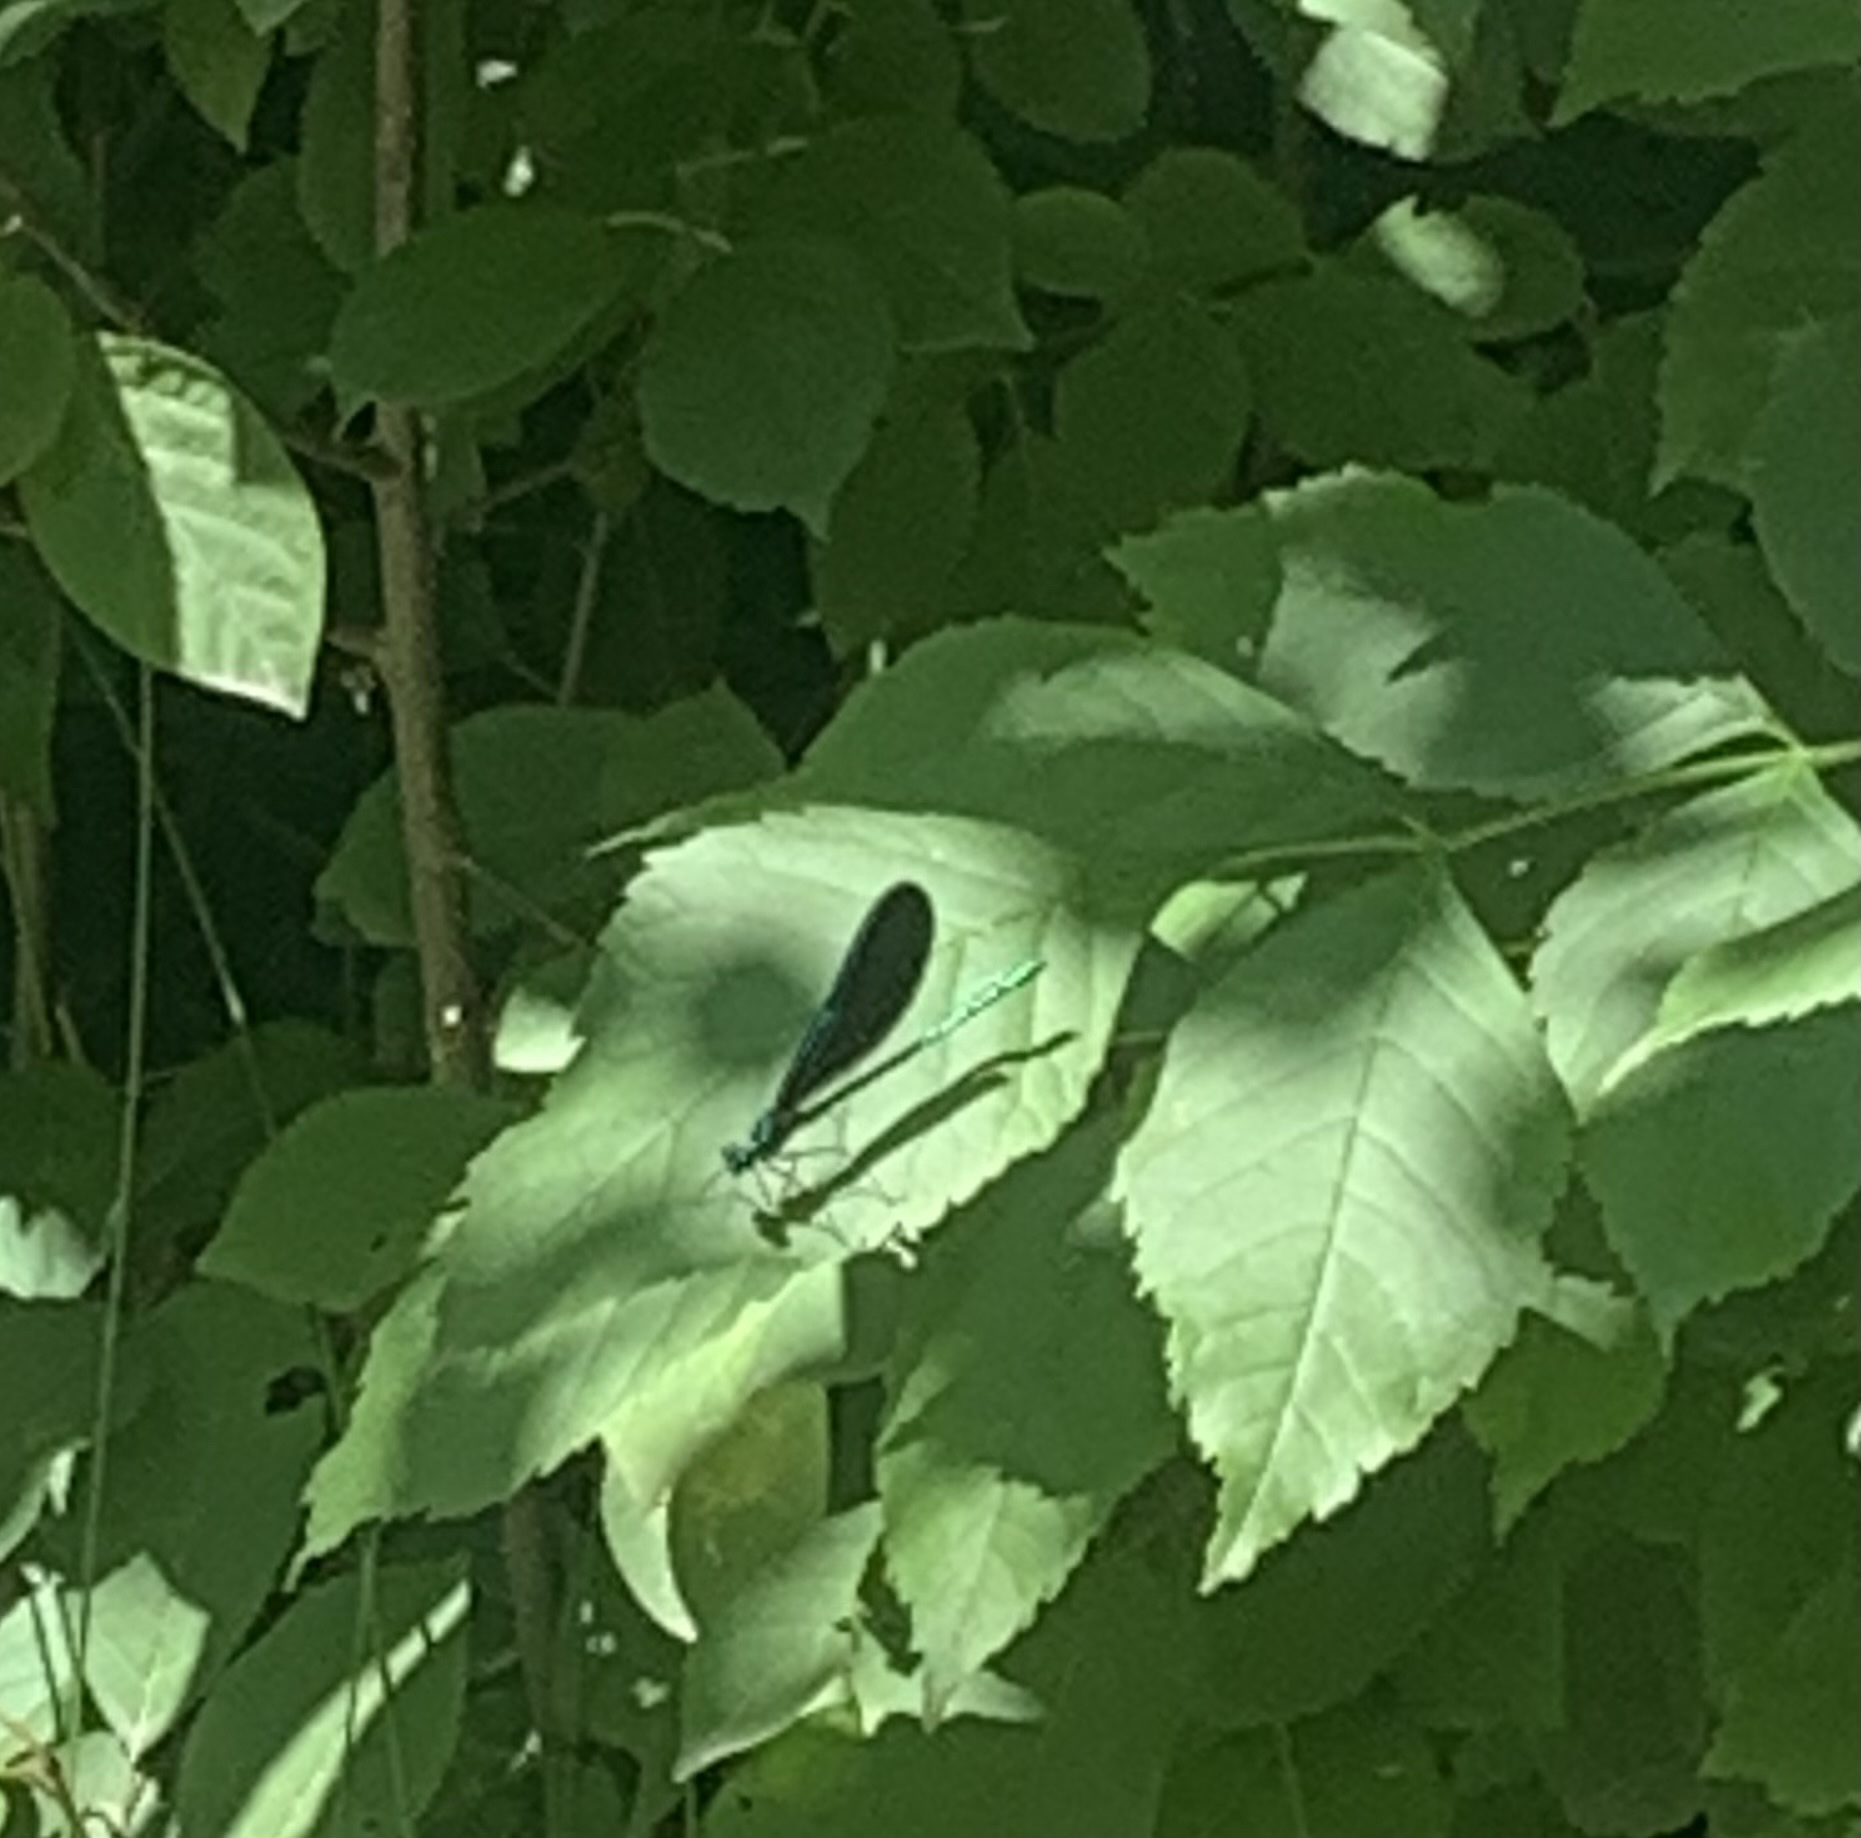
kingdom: Animalia
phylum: Arthropoda
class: Insecta
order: Odonata
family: Calopterygidae
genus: Calopteryx
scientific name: Calopteryx maculata
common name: Ebony jewelwing
